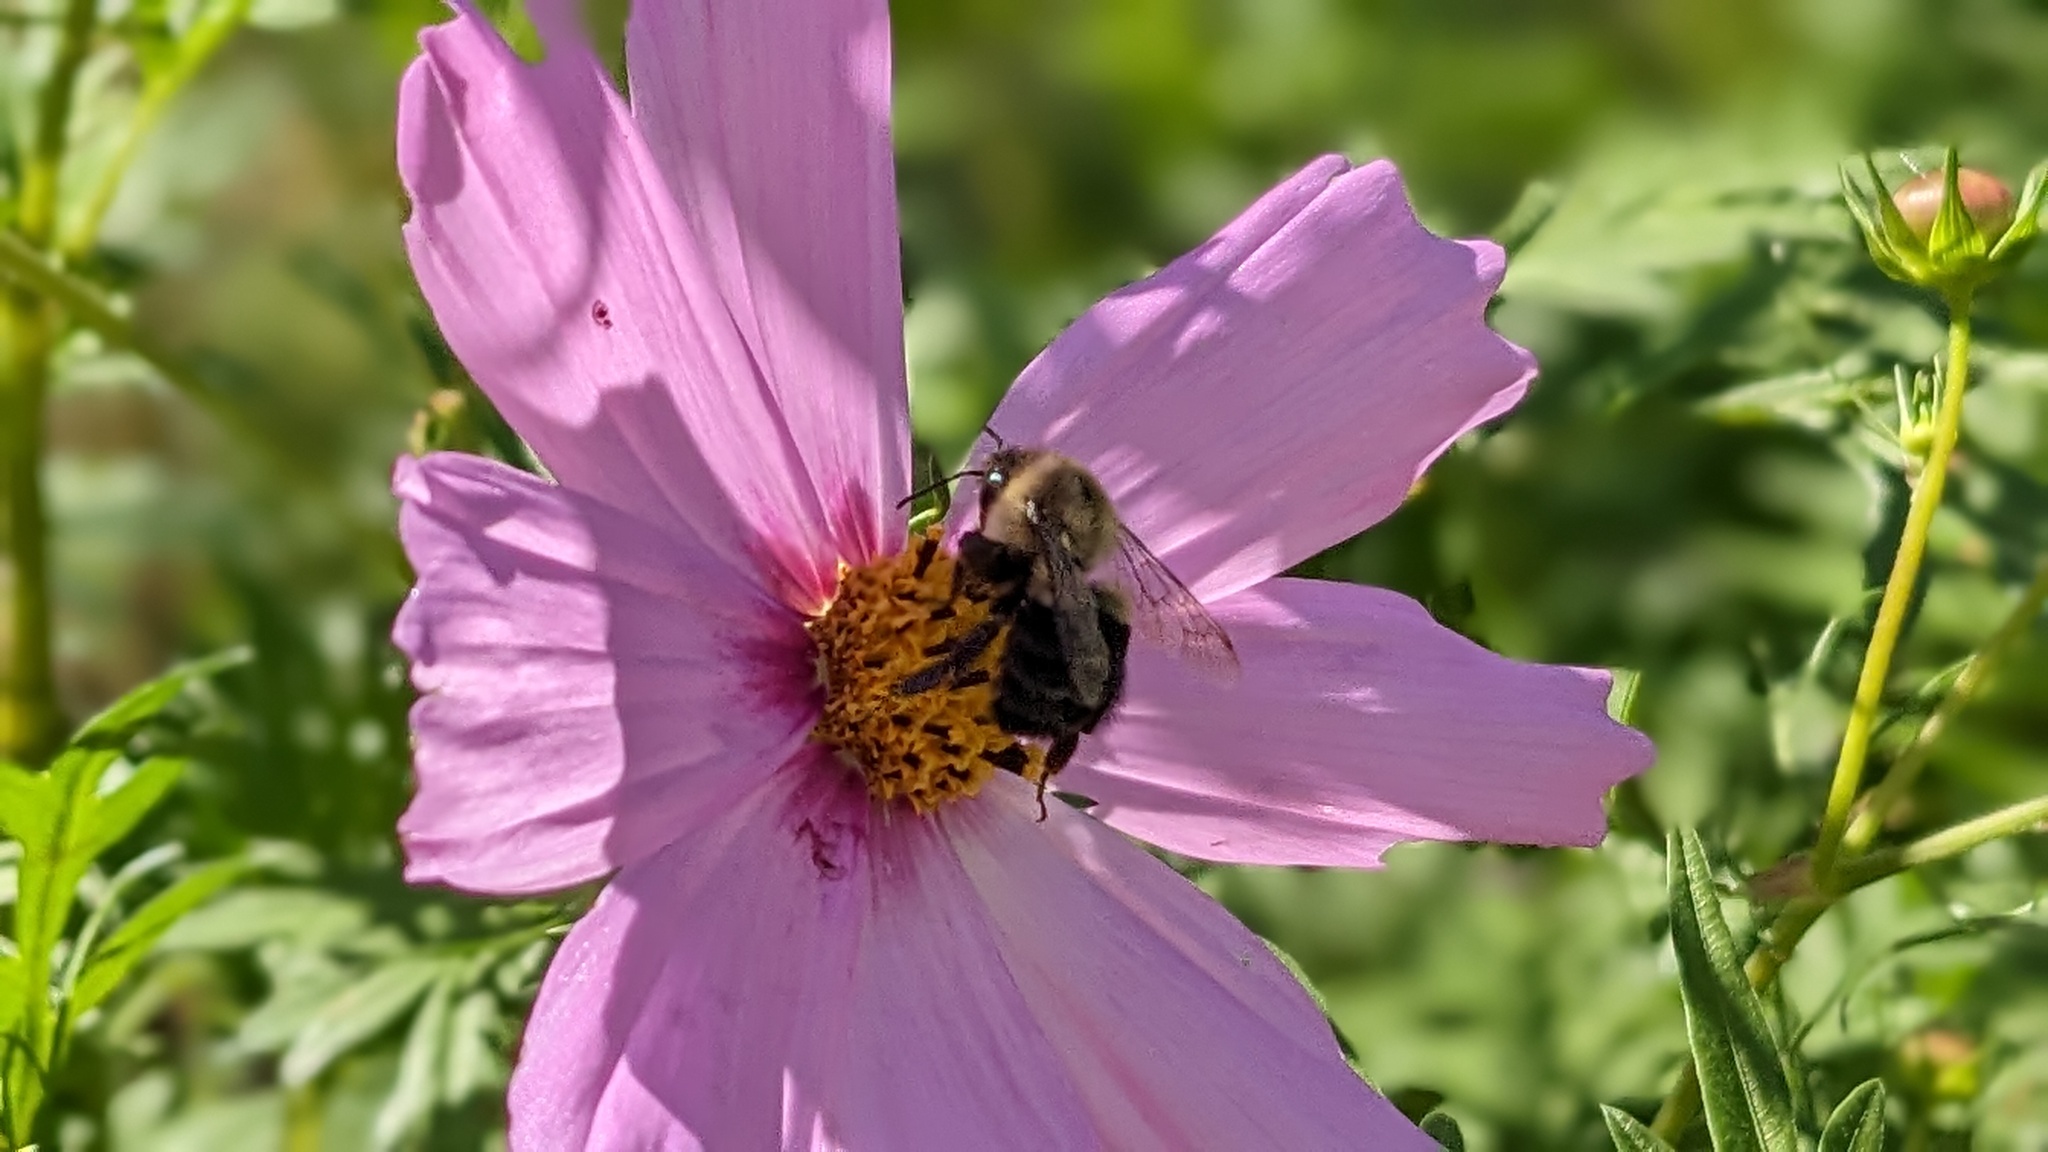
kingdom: Animalia
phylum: Arthropoda
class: Insecta
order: Hymenoptera
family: Apidae
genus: Bombus
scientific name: Bombus impatiens
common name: Common eastern bumble bee
